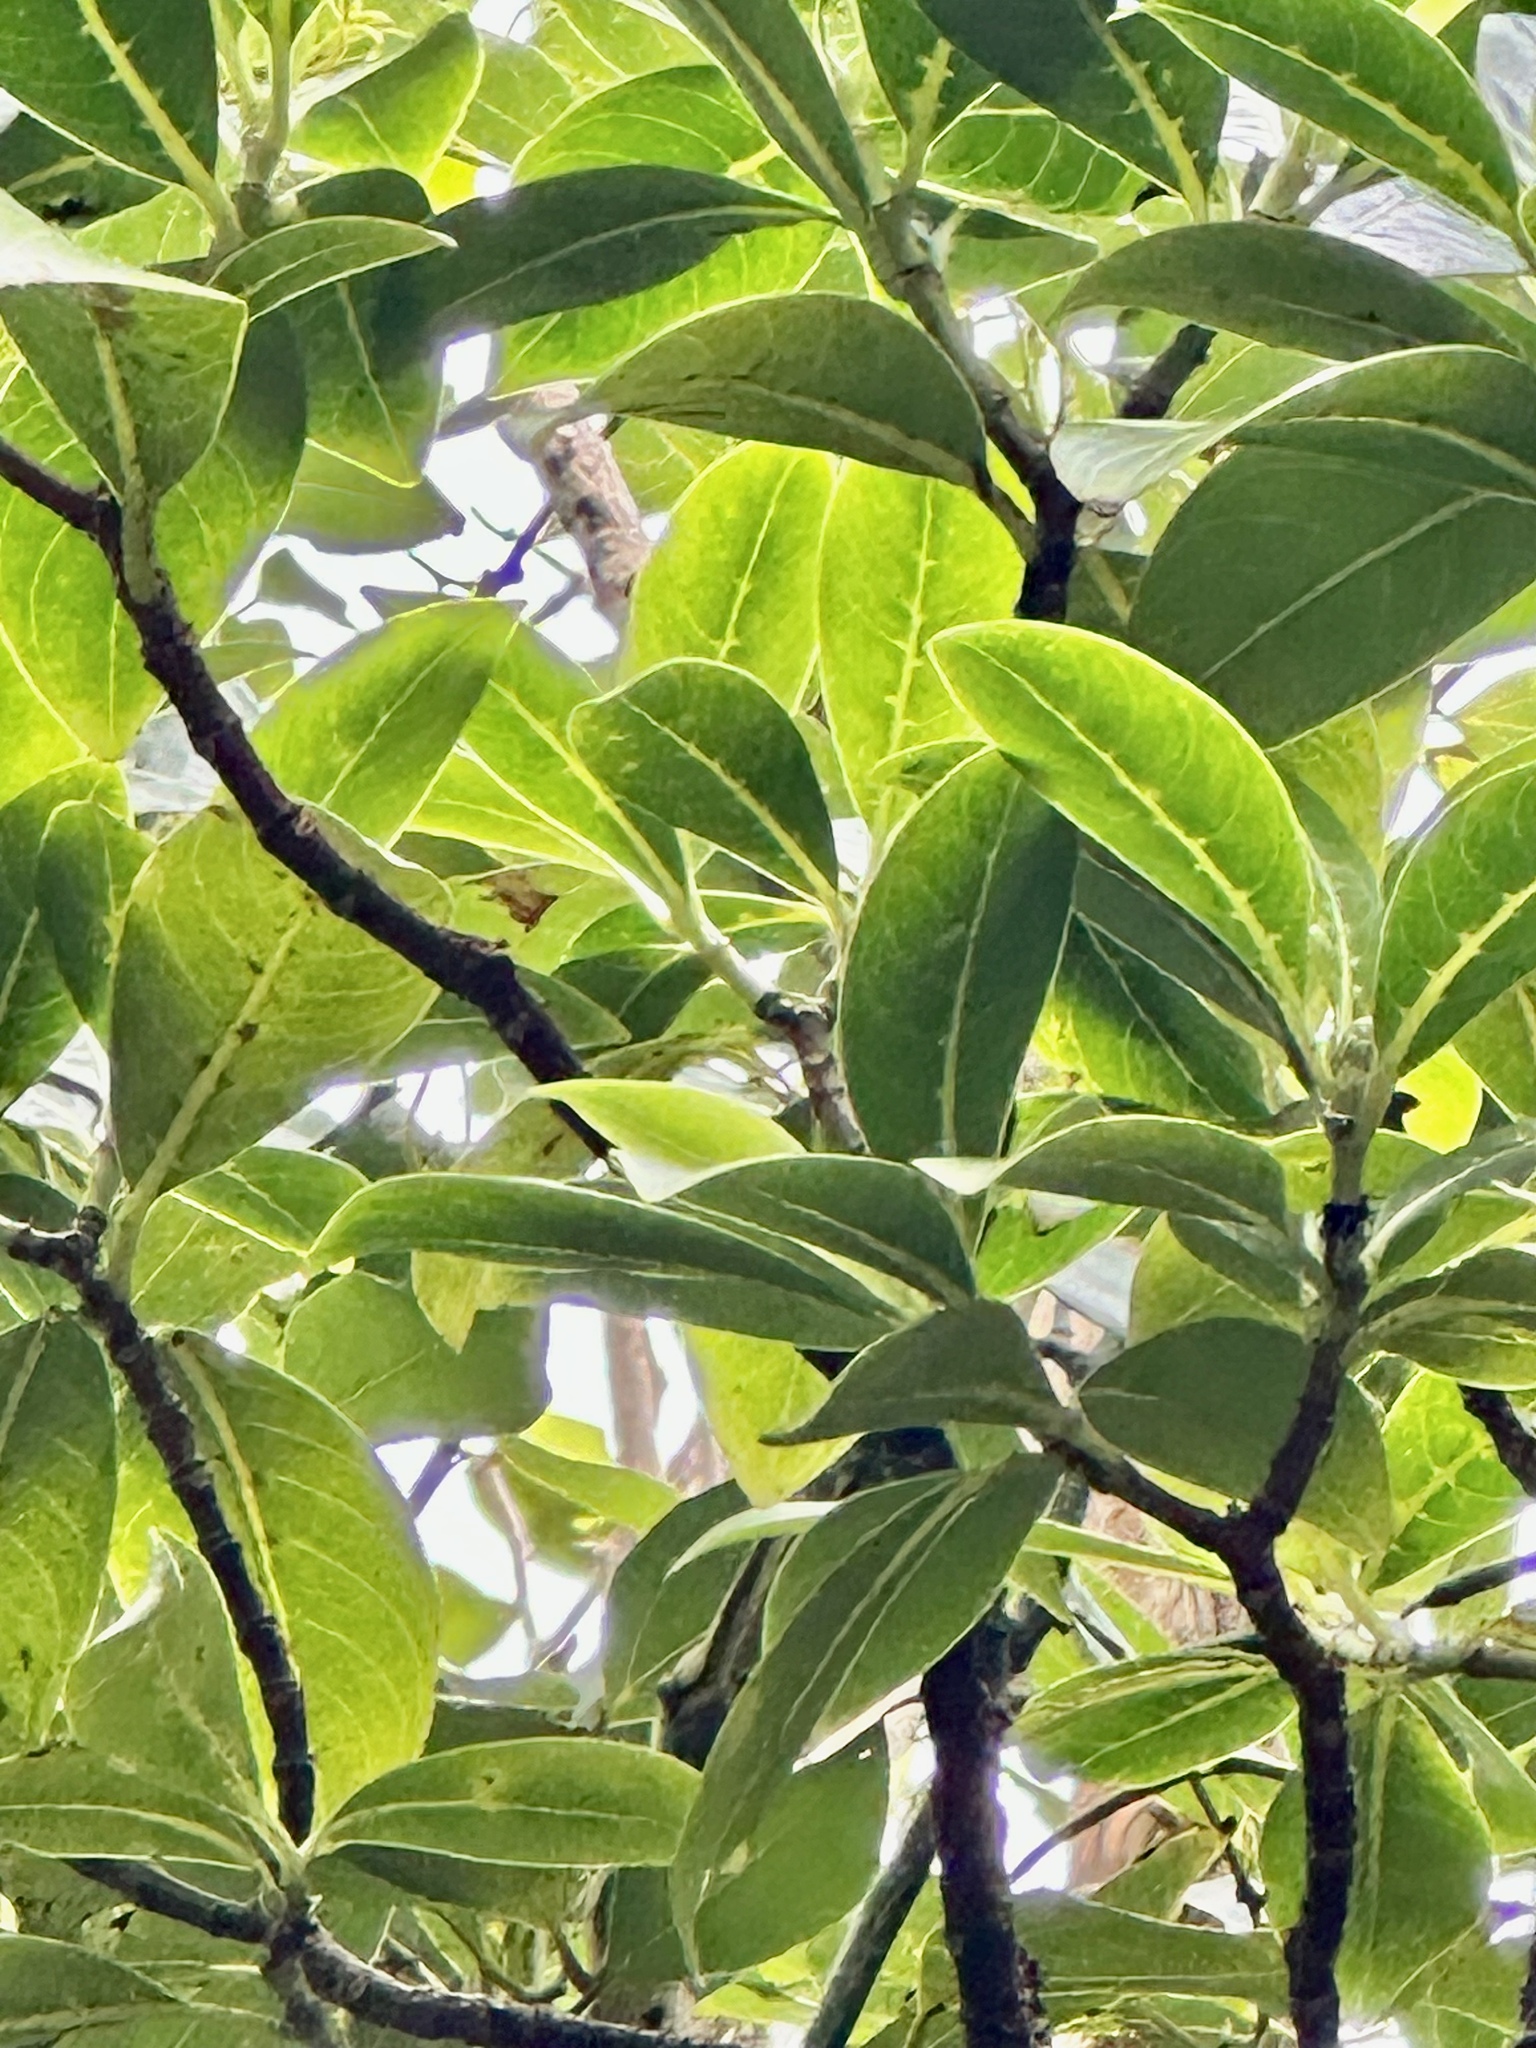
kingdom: Plantae
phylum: Tracheophyta
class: Magnoliopsida
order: Gentianales
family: Rubiaceae
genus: Psychotria
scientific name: Psychotria mariniana
